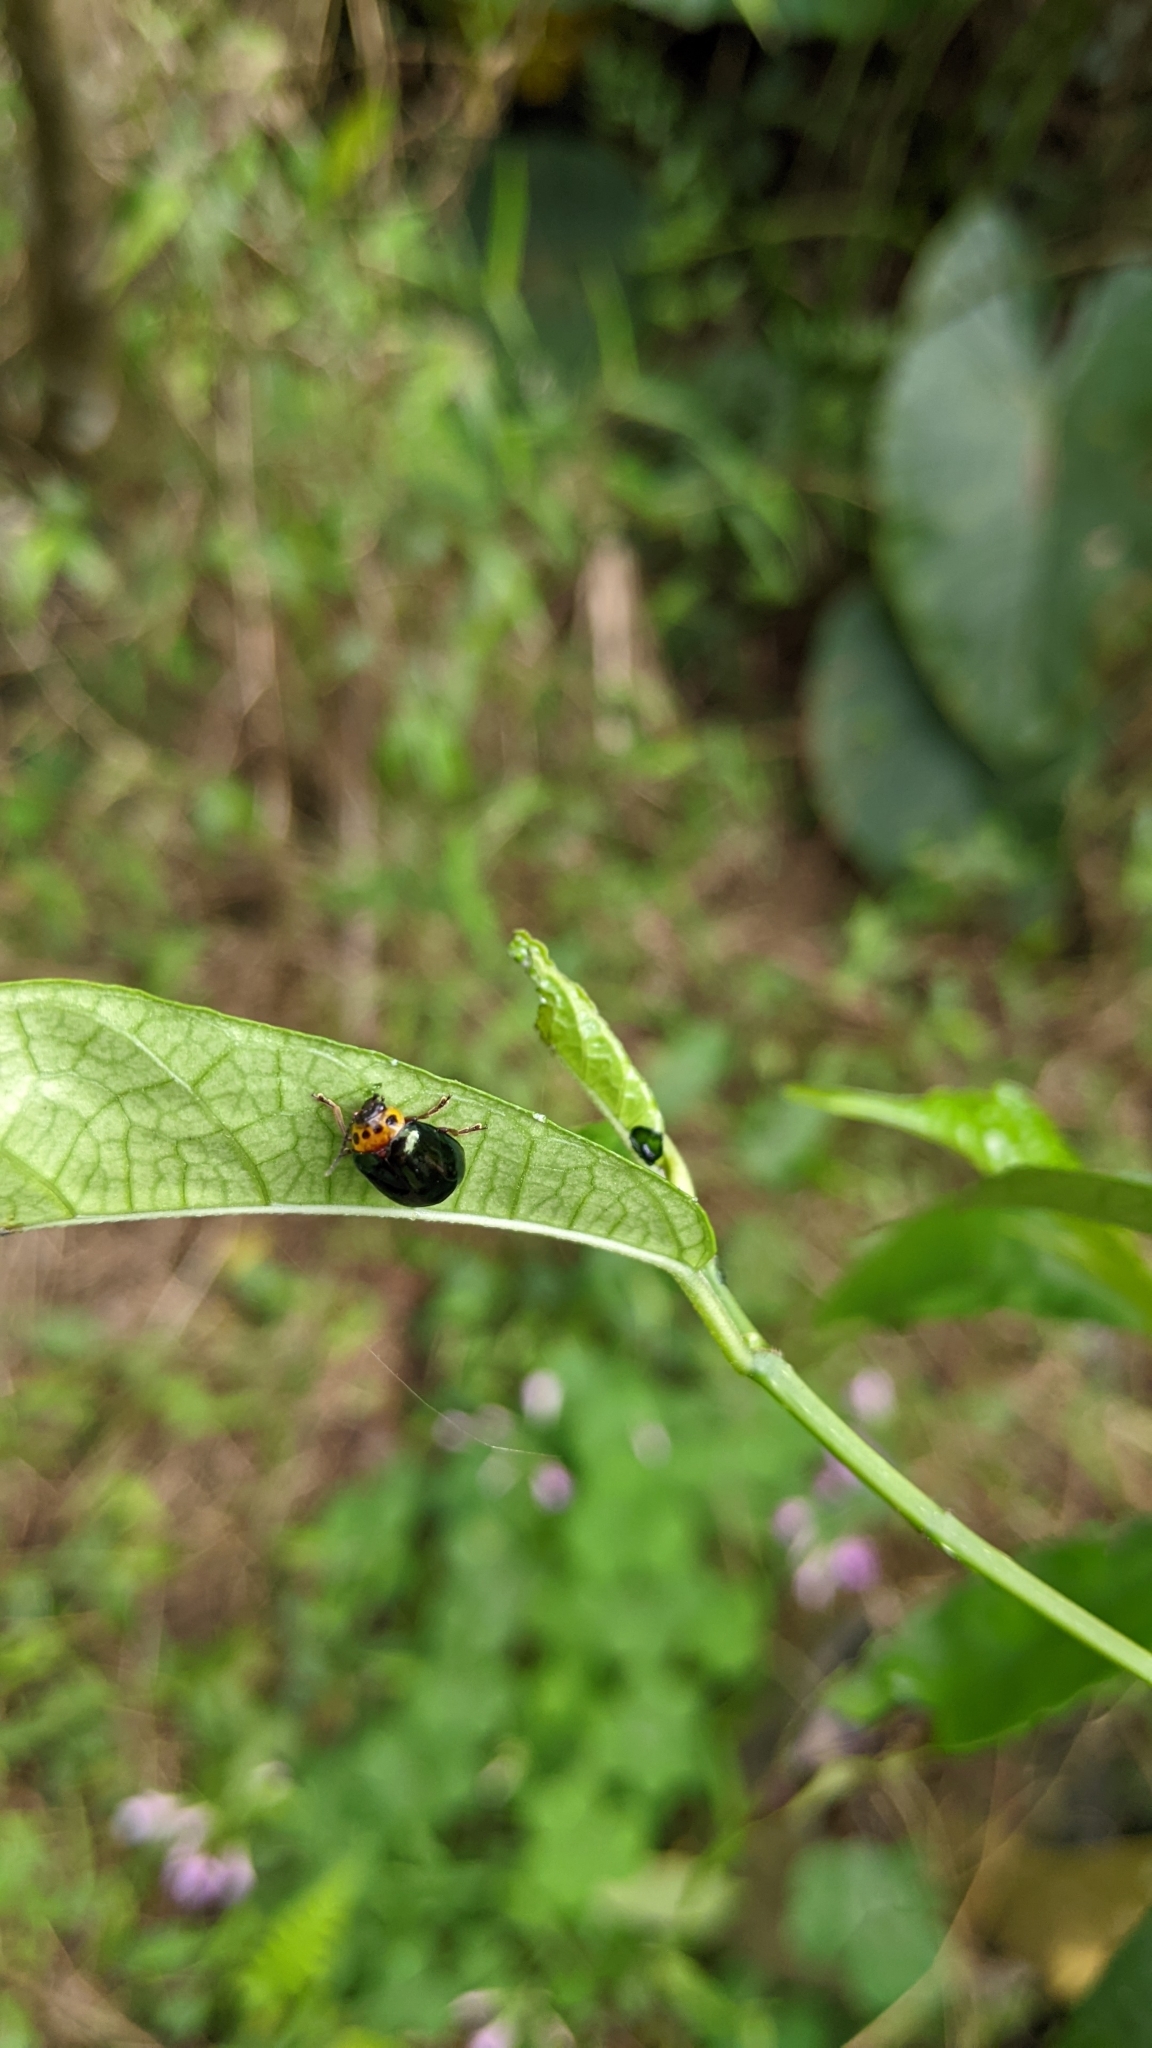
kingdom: Animalia
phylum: Arthropoda
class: Insecta
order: Coleoptera
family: Chrysomelidae
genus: Morphosphaera
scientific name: Morphosphaera chrysomeloides
